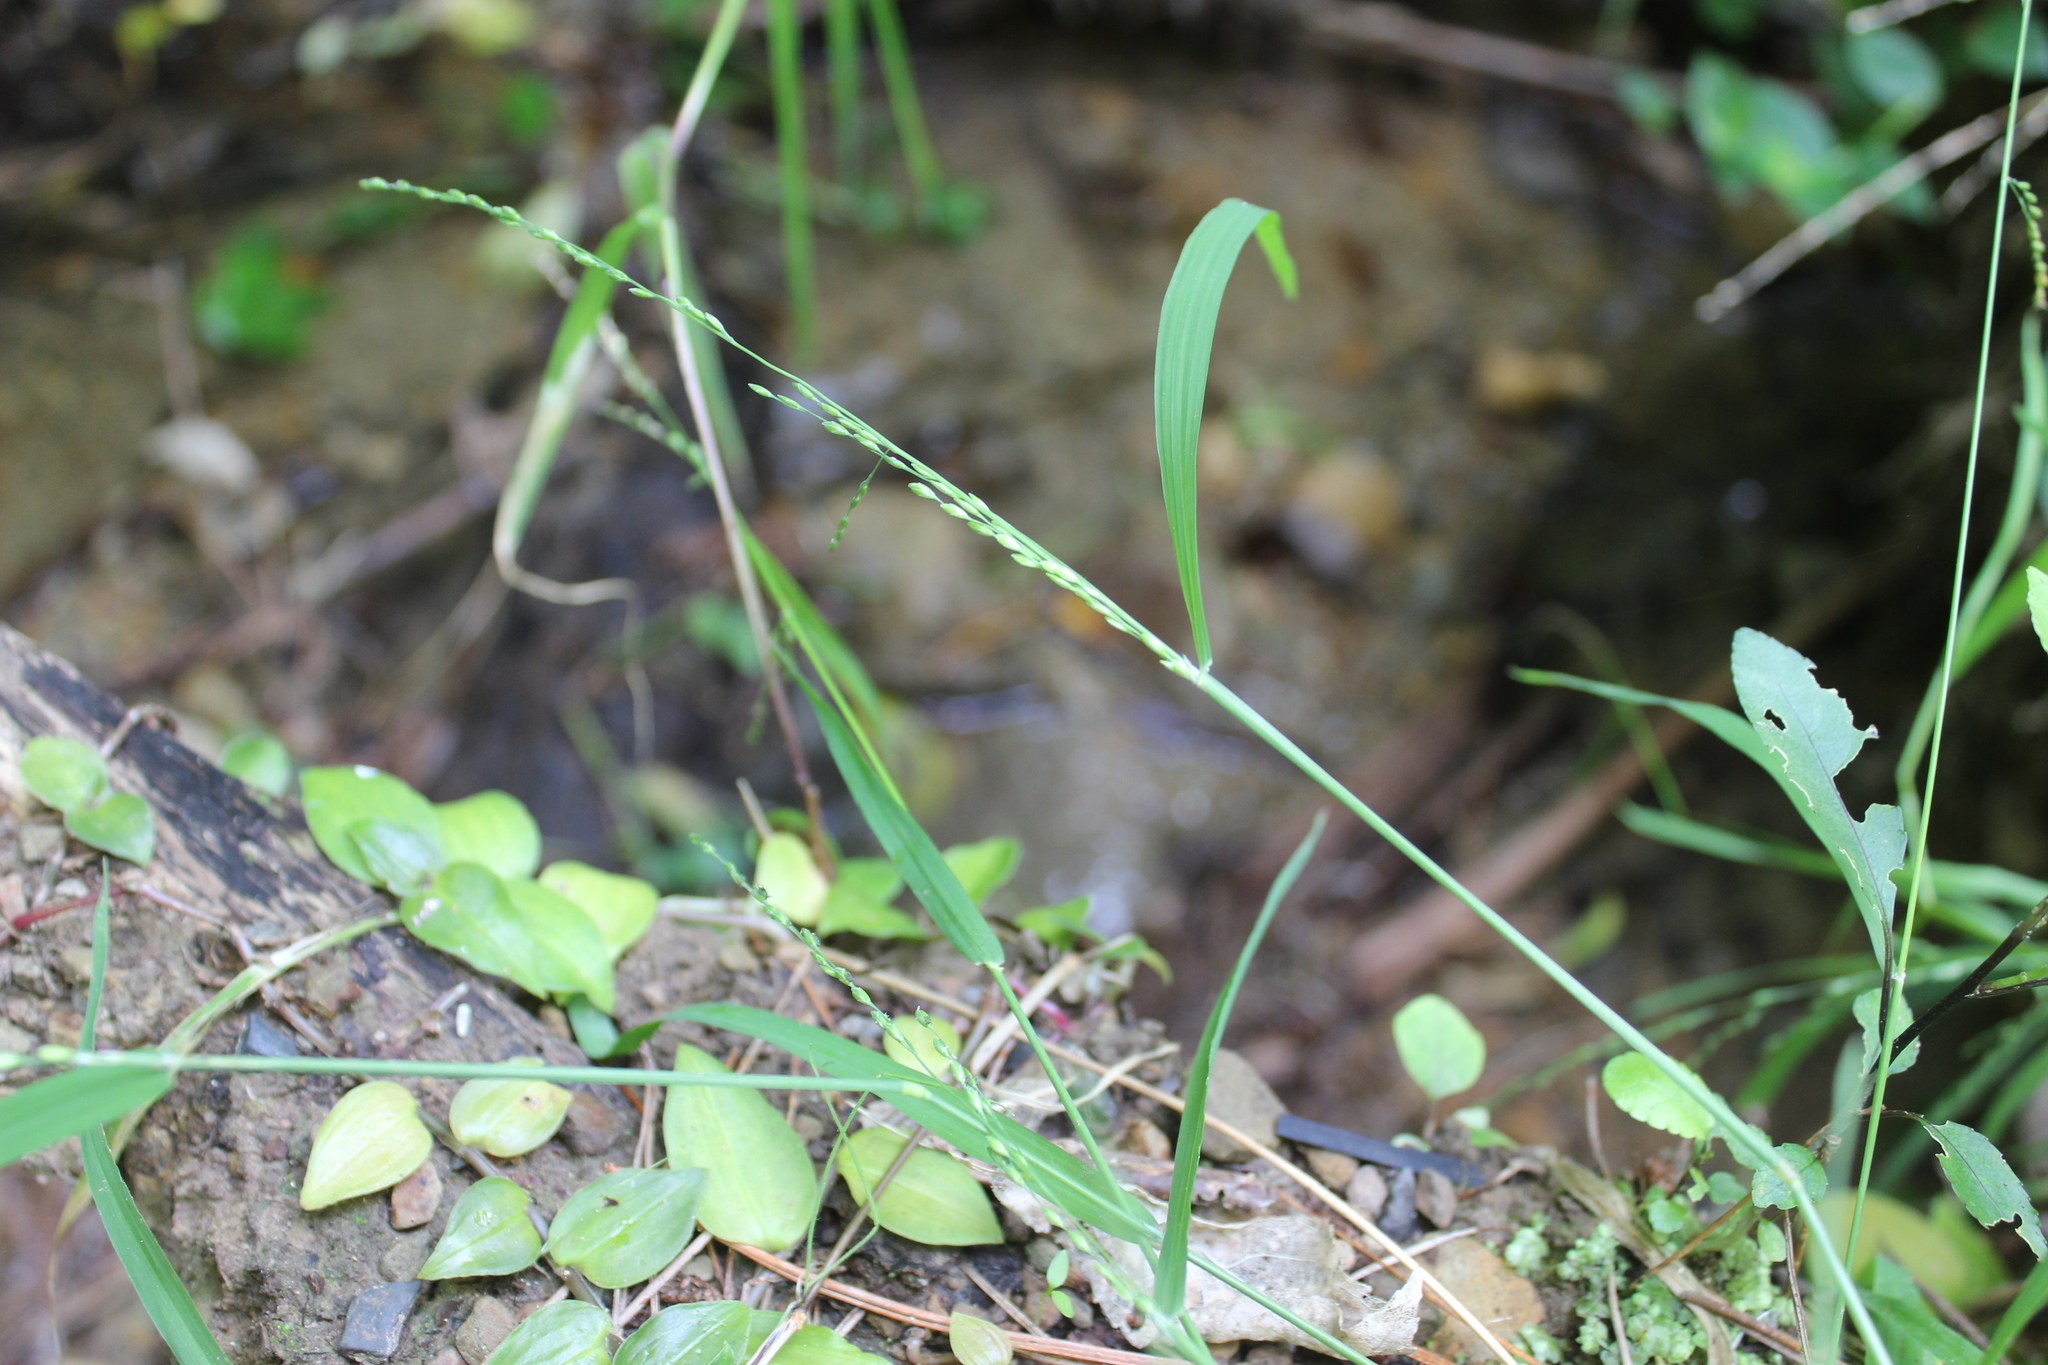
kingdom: Plantae
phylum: Tracheophyta
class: Liliopsida
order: Poales
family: Poaceae
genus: Ehrharta
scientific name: Ehrharta erecta
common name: Panic veldtgrass
